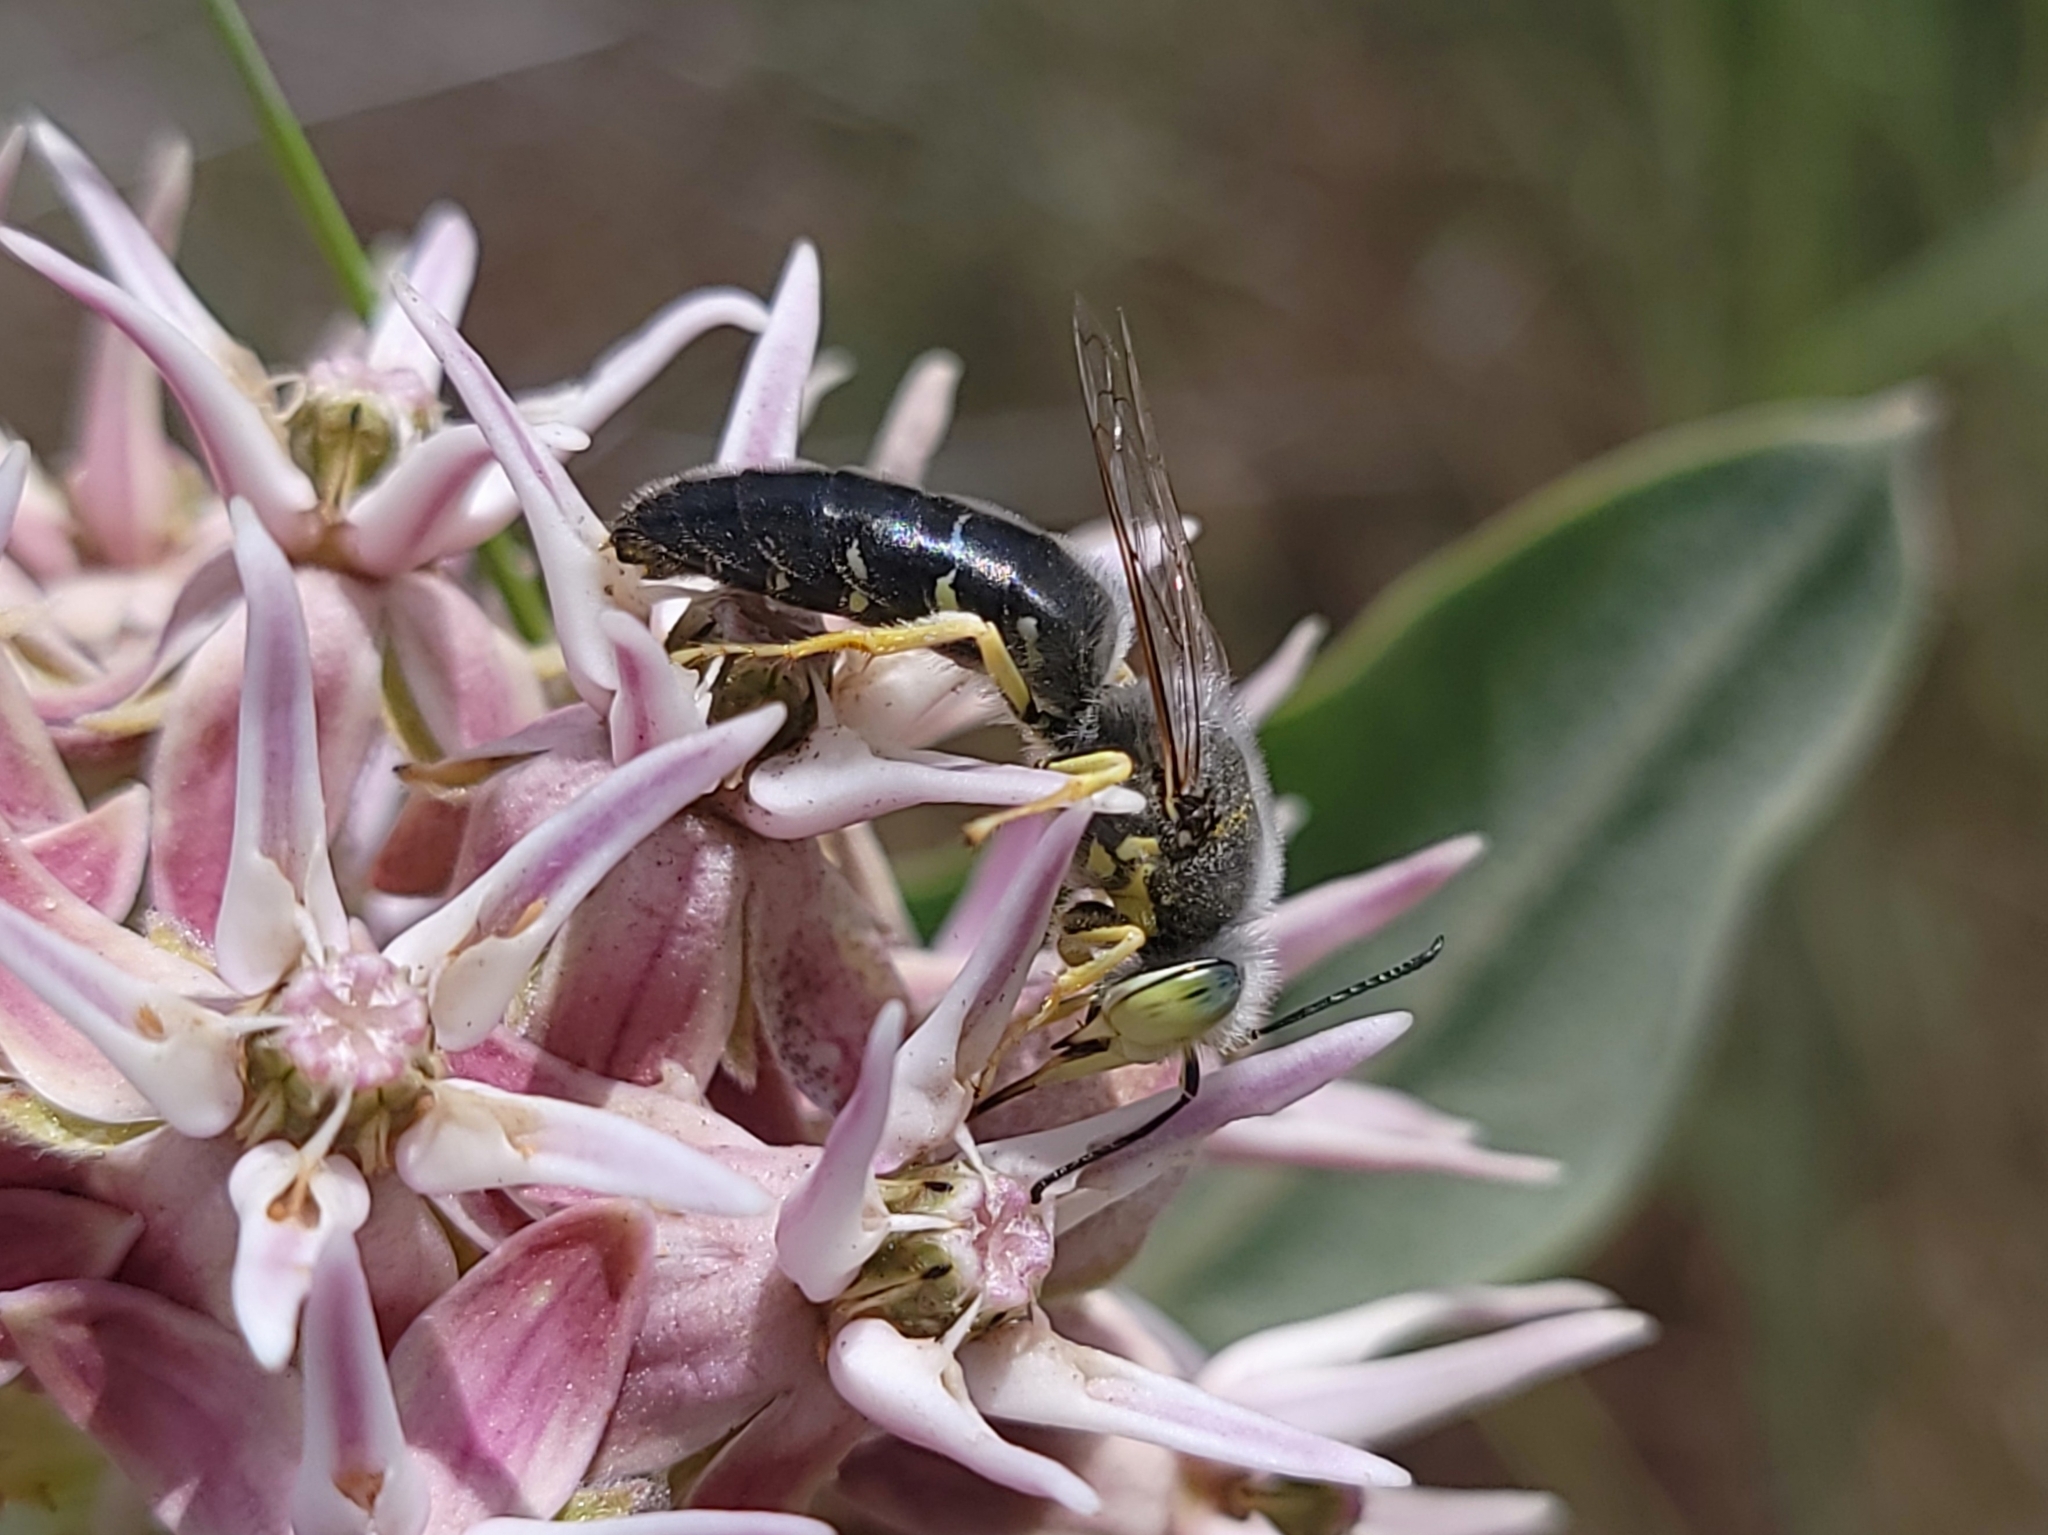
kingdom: Animalia
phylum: Arthropoda
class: Insecta
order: Hymenoptera
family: Crabronidae
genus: Bembix
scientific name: Bembix amoena
